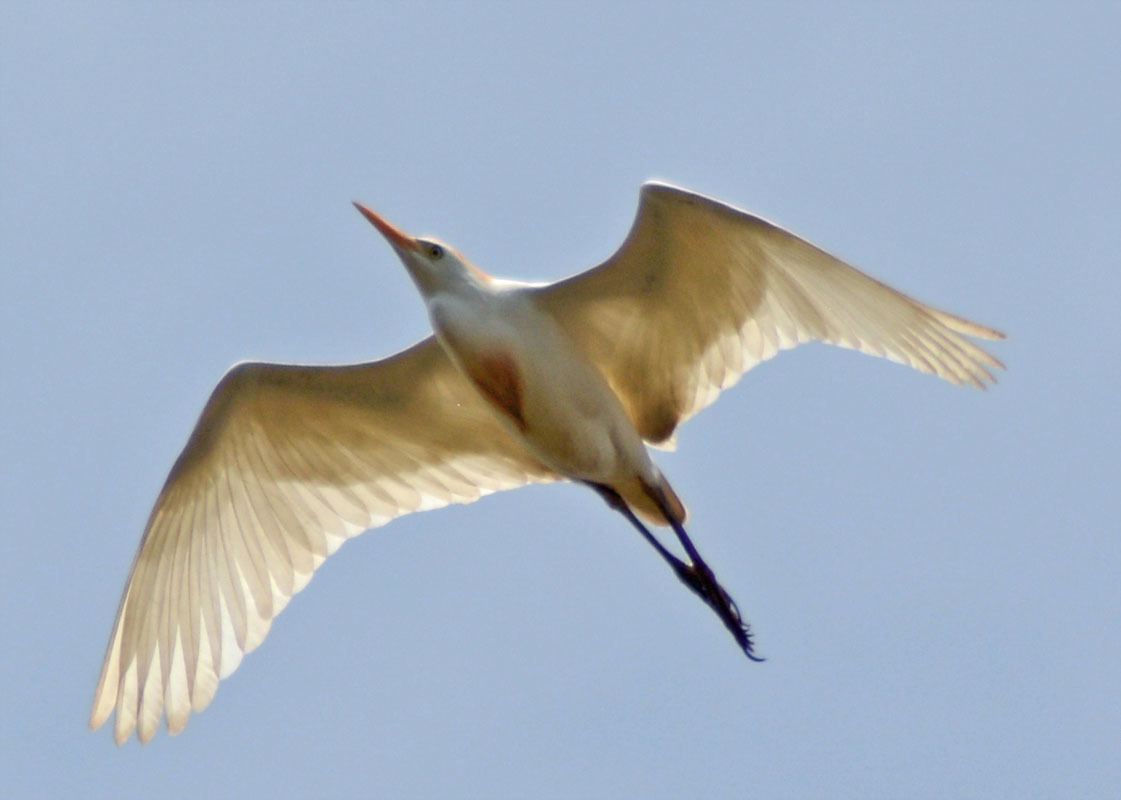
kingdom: Animalia
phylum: Chordata
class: Aves
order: Pelecaniformes
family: Ardeidae
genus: Bubulcus
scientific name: Bubulcus ibis
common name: Cattle egret
